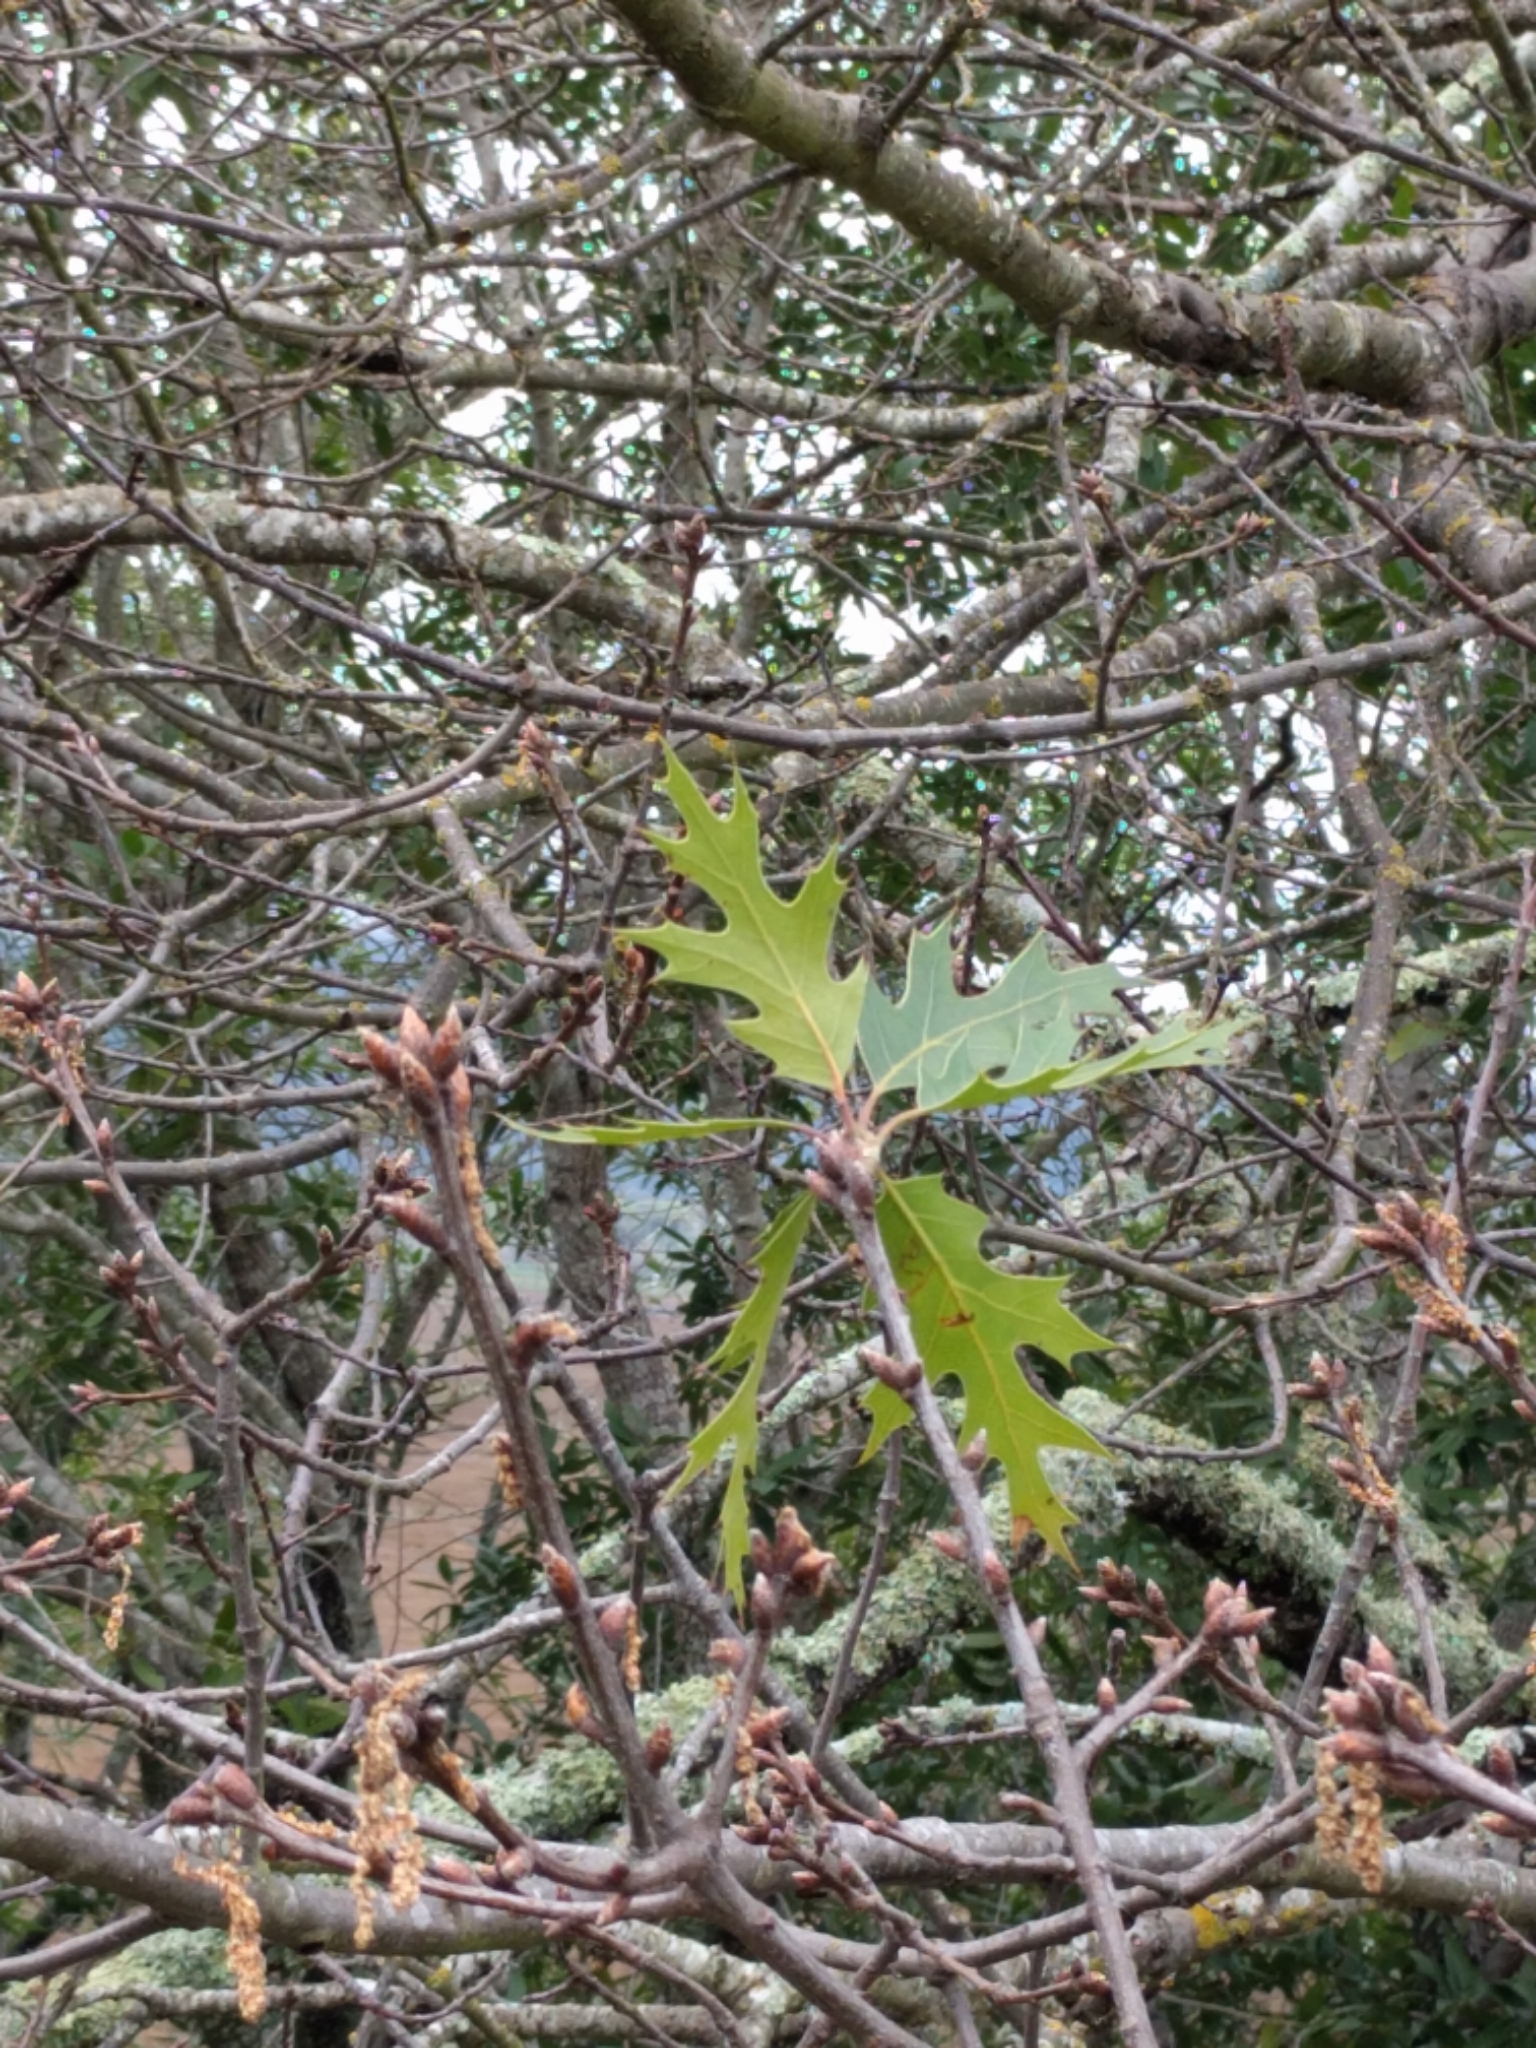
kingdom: Plantae
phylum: Tracheophyta
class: Magnoliopsida
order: Fagales
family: Fagaceae
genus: Quercus
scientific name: Quercus kelloggii
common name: California black oak
